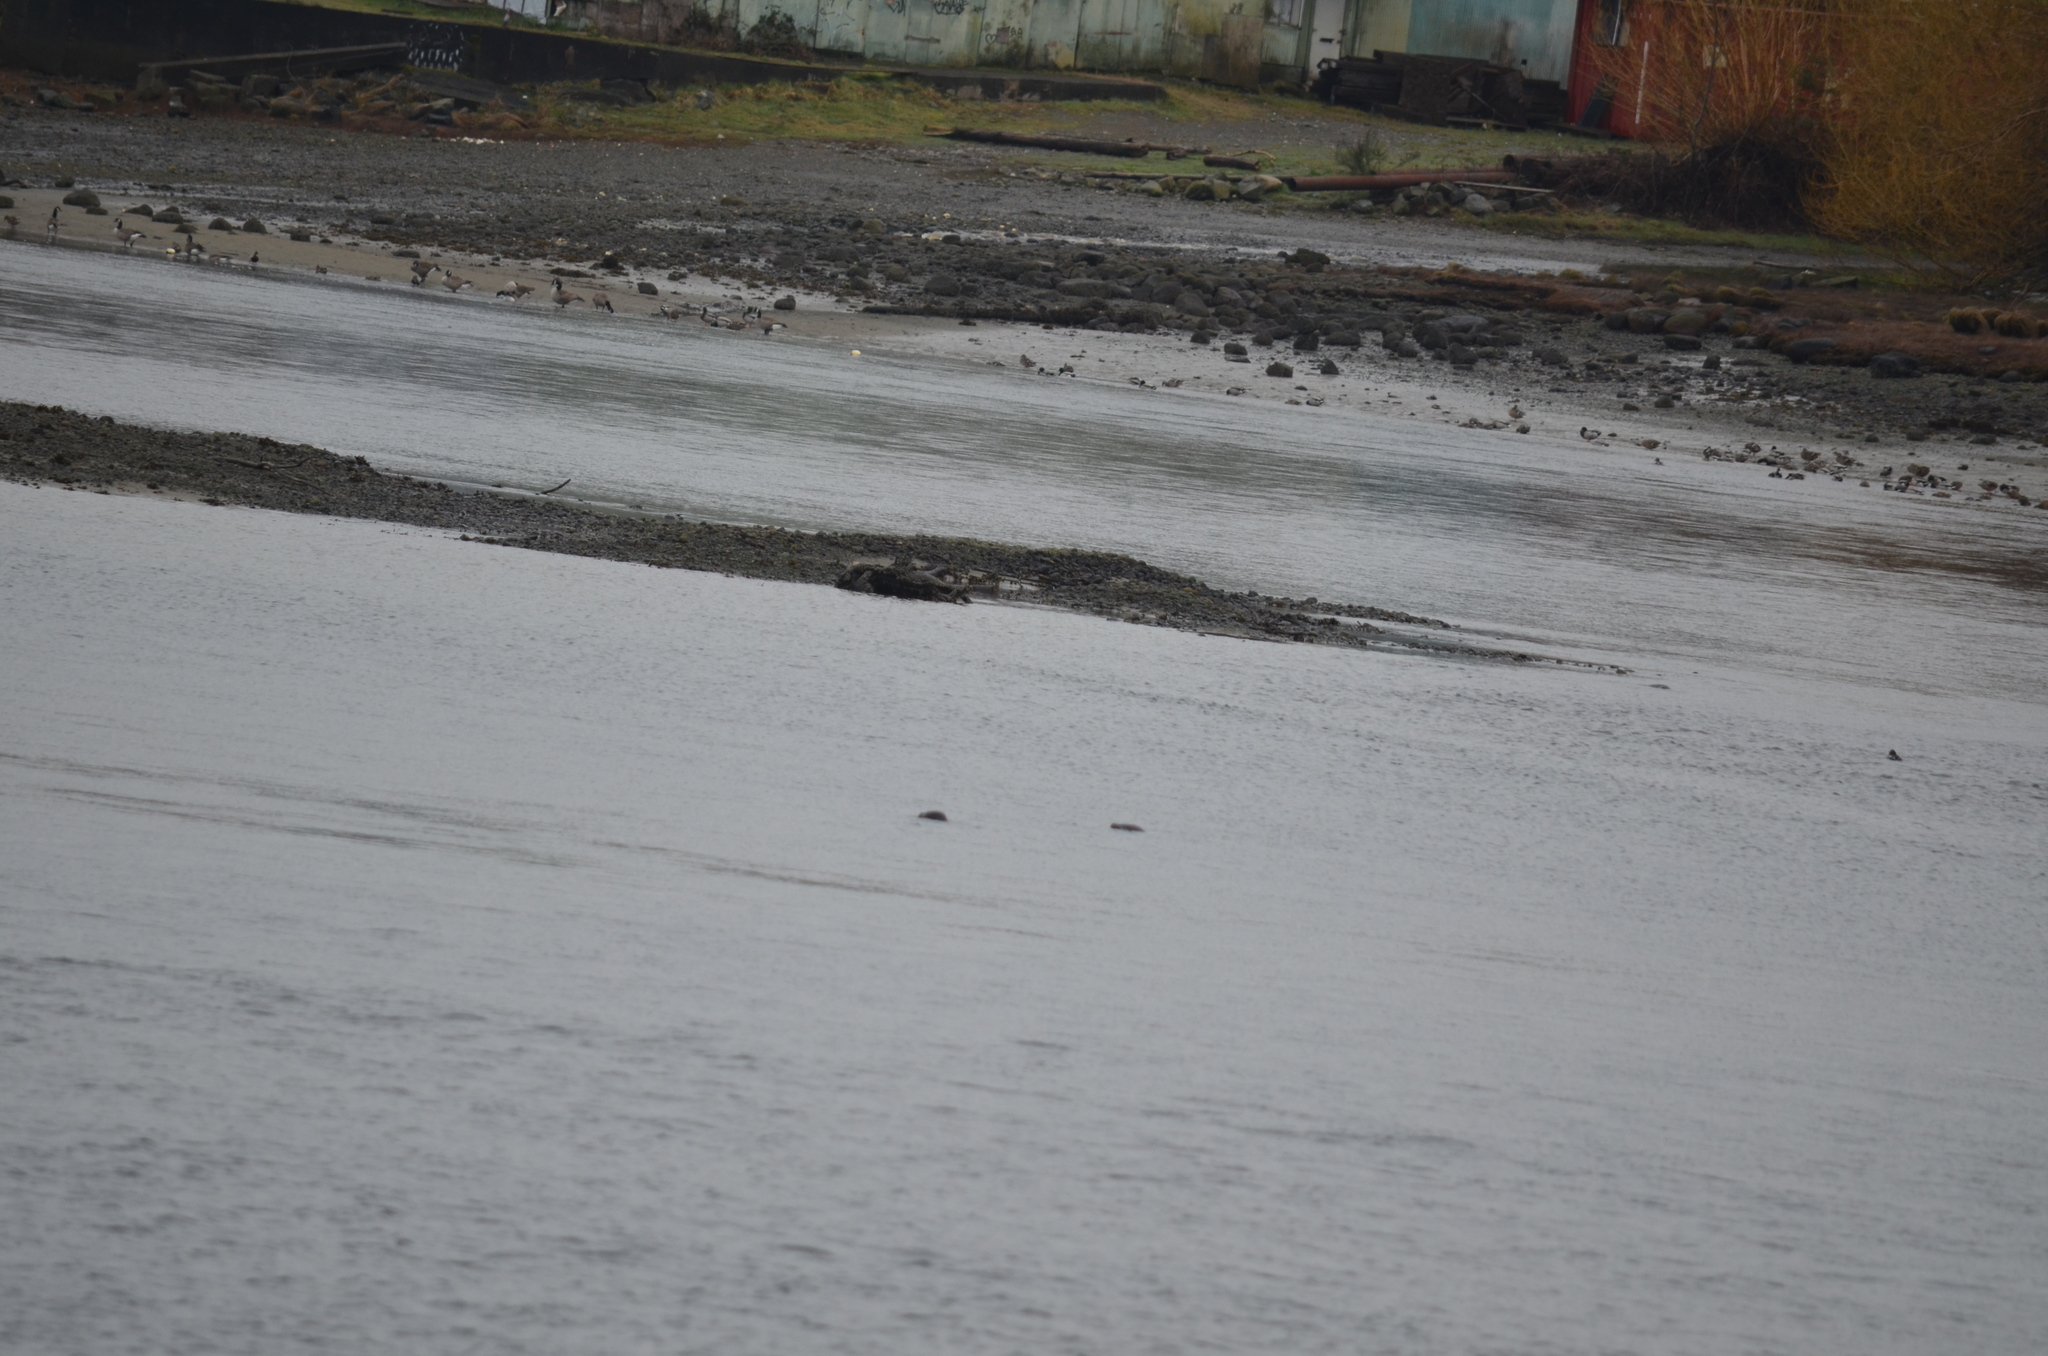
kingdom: Animalia
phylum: Chordata
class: Aves
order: Anseriformes
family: Anatidae
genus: Branta
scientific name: Branta canadensis
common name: Canada goose
